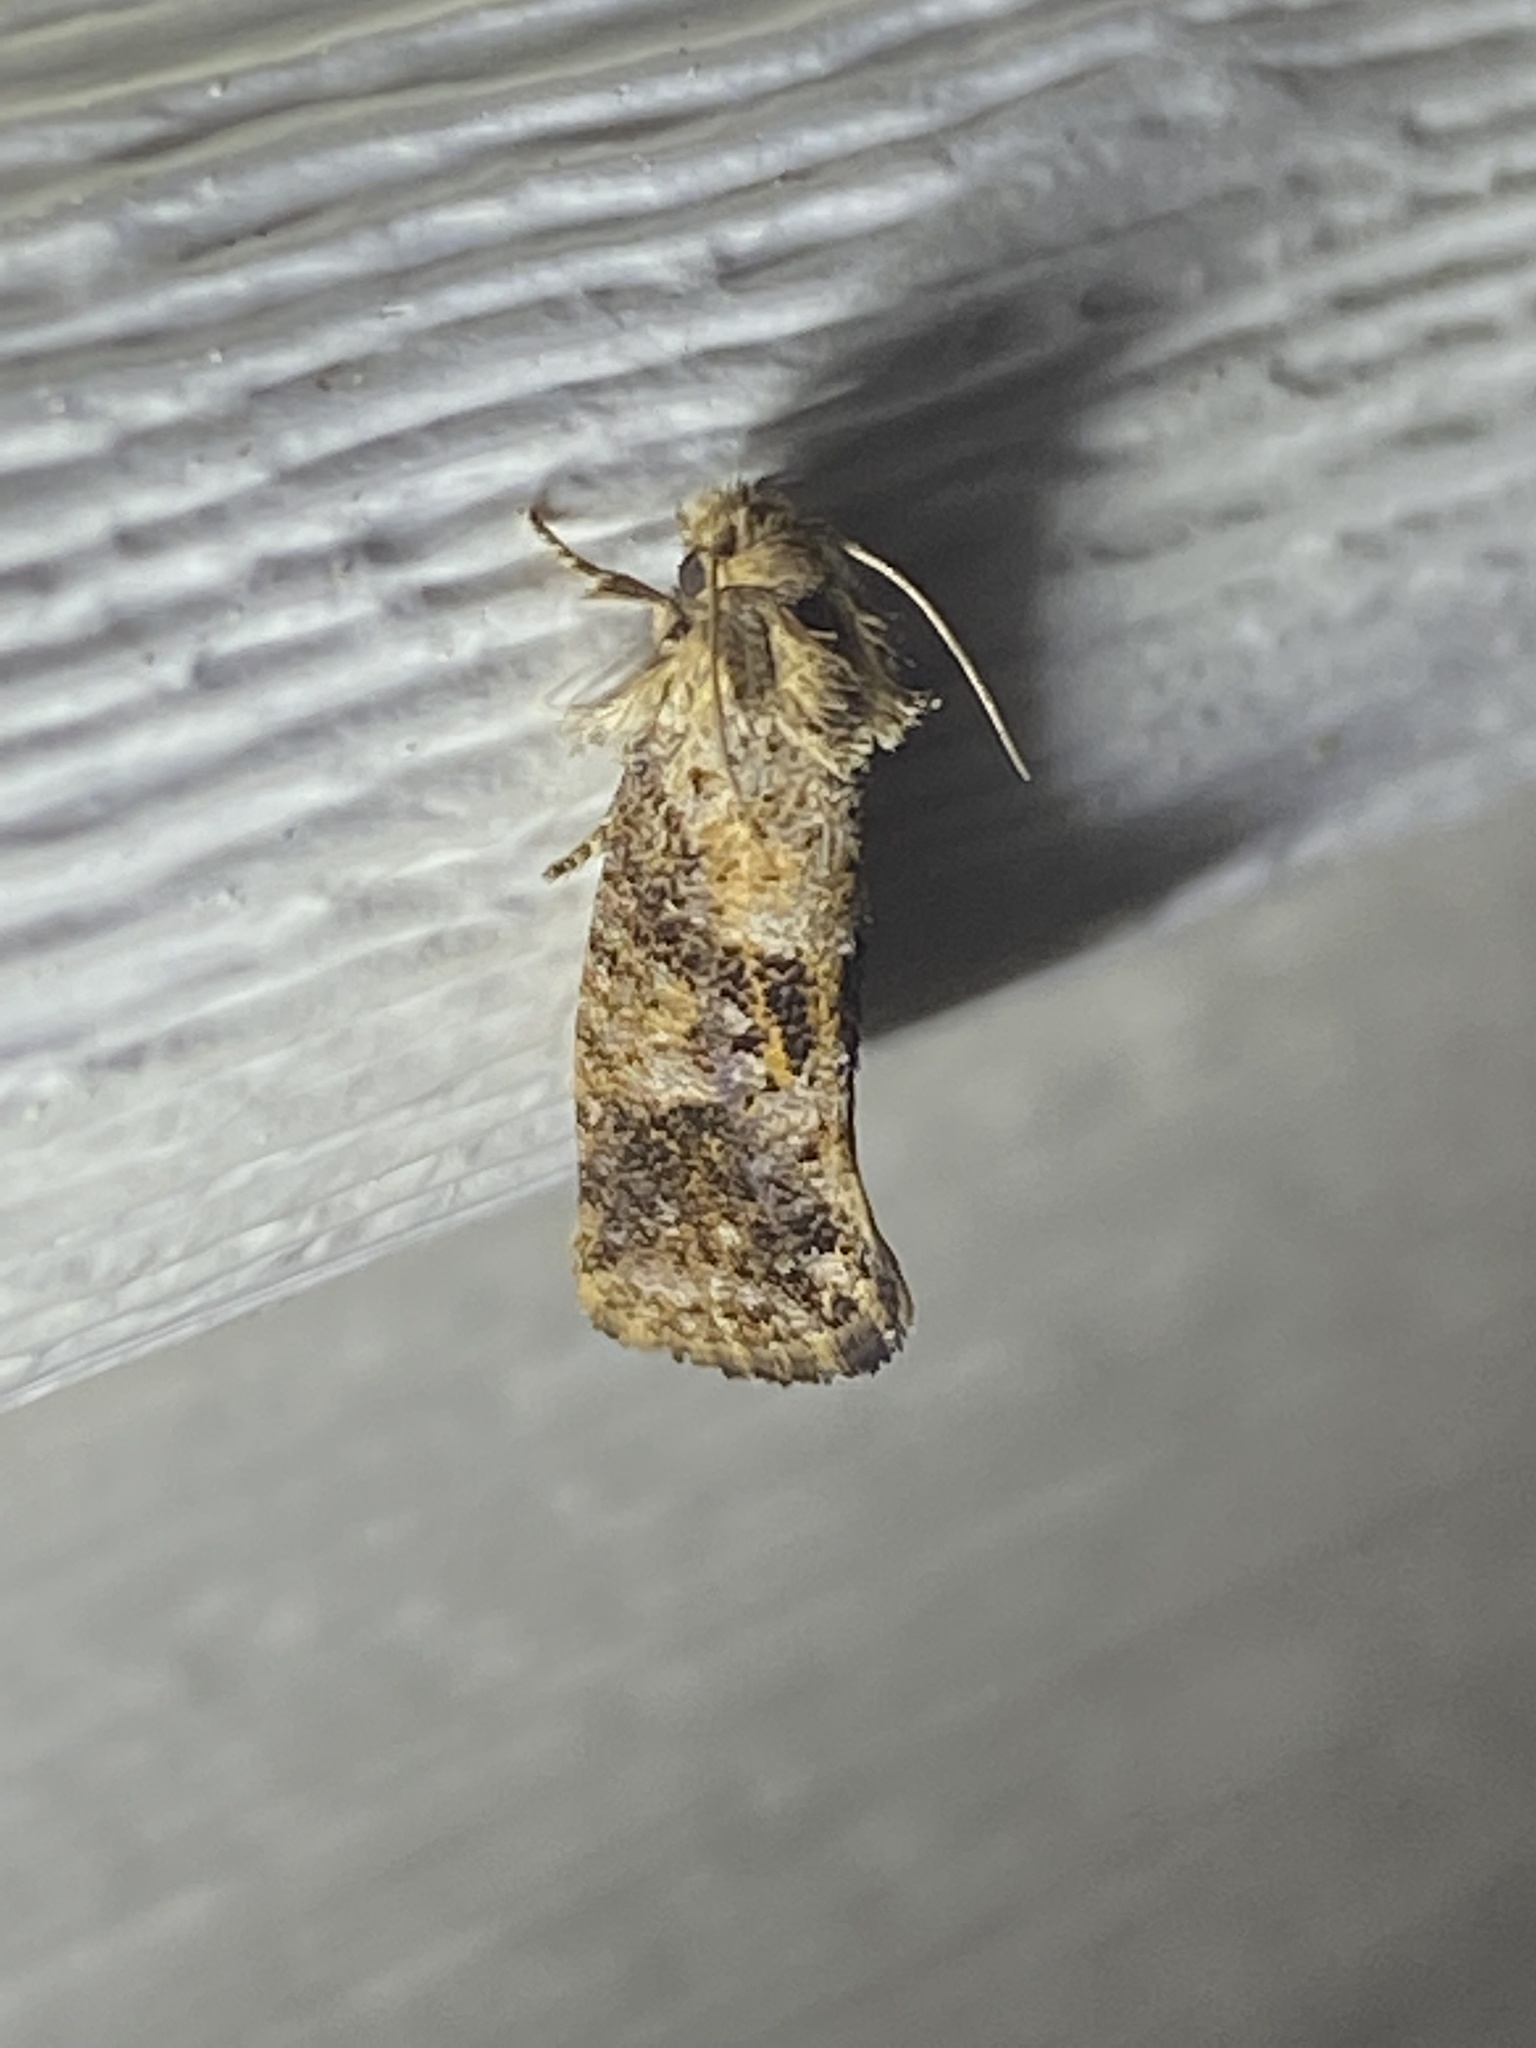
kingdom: Animalia
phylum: Arthropoda
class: Insecta
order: Lepidoptera
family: Tineidae
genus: Acrolophus
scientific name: Acrolophus panamae
